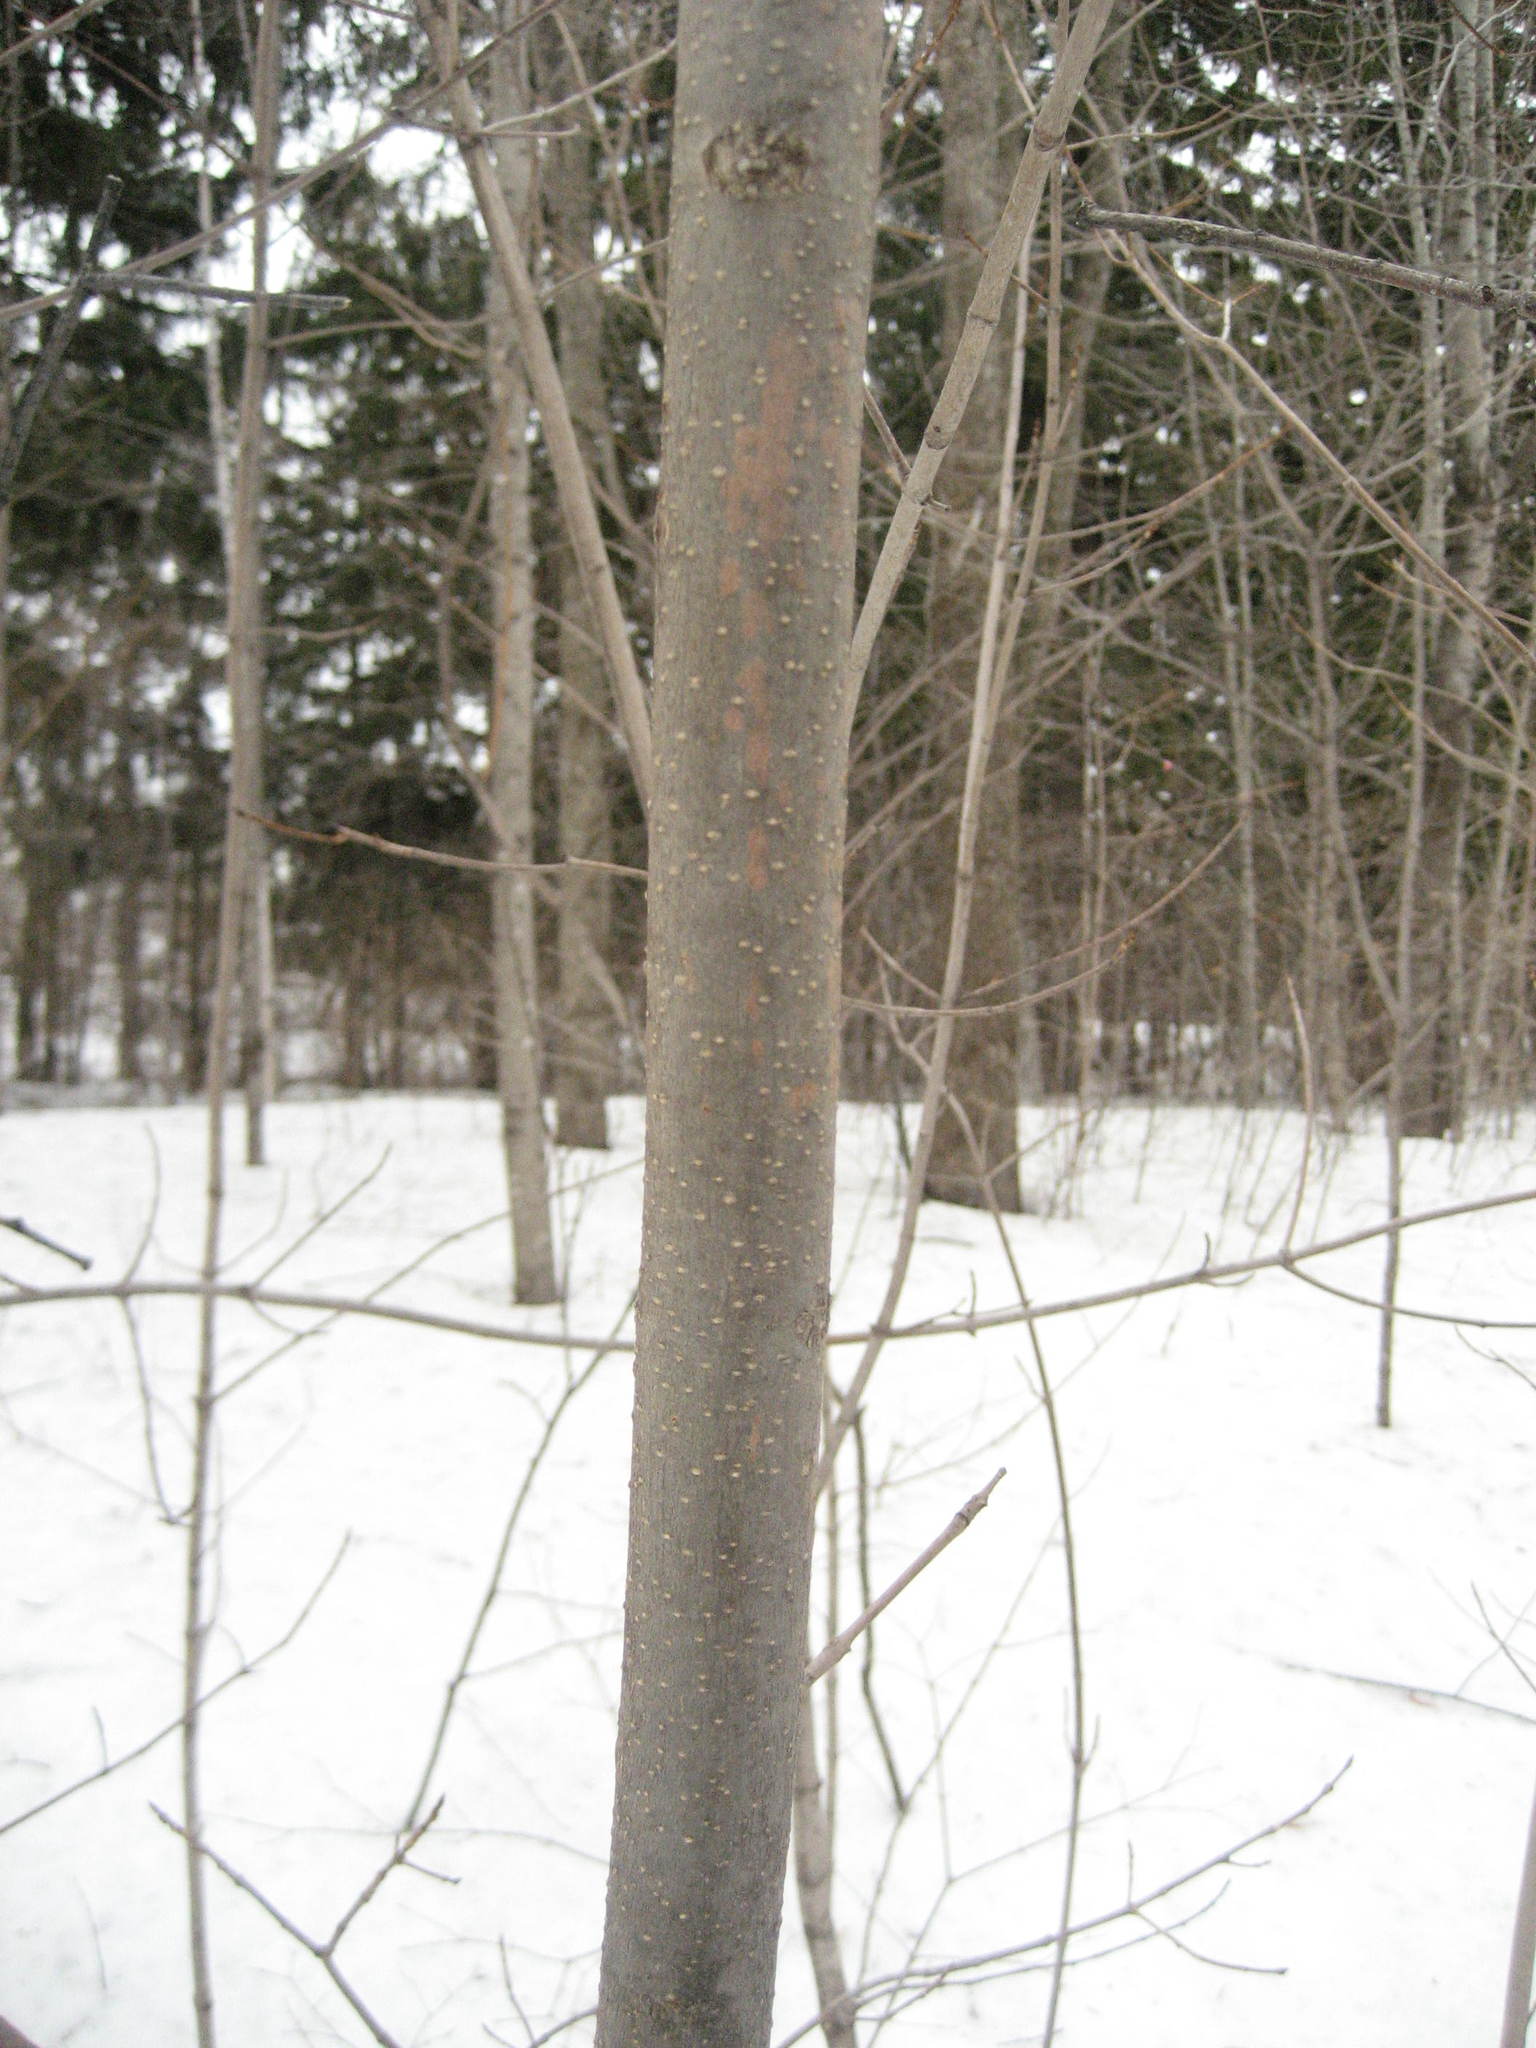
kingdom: Plantae
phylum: Tracheophyta
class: Magnoliopsida
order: Lamiales
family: Oleaceae
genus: Fraxinus
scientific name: Fraxinus pennsylvanica
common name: Green ash
